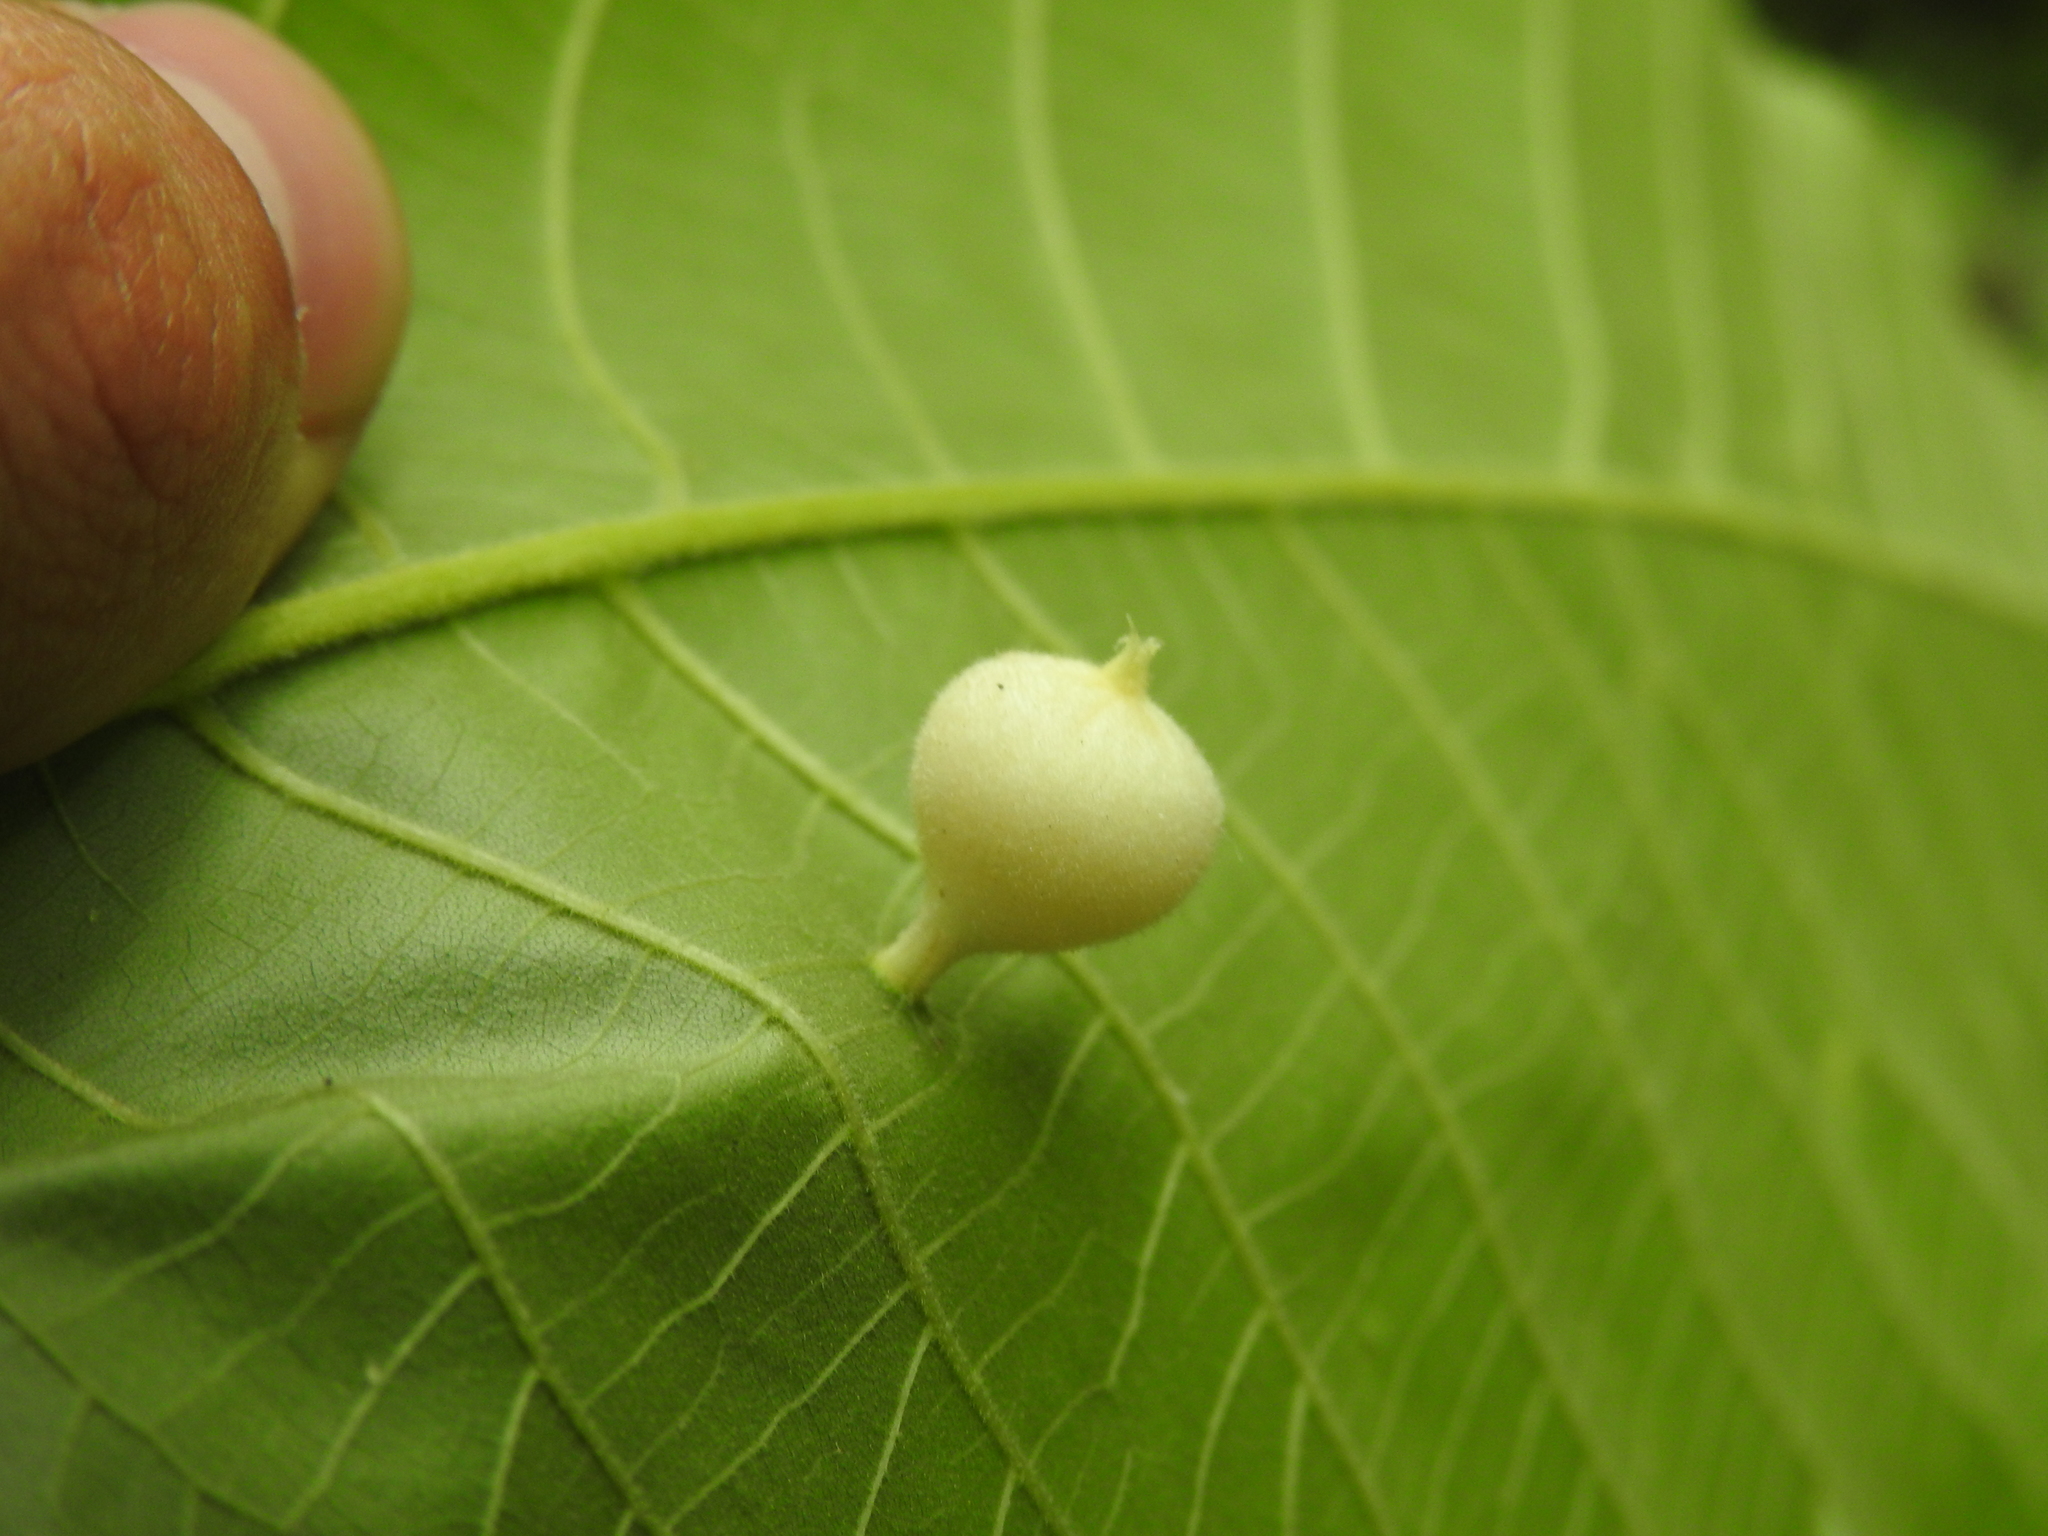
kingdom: Animalia
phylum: Arthropoda
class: Insecta
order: Hemiptera
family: Phylloxeridae
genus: Phylloxera
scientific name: Phylloxera caryaegummosa
